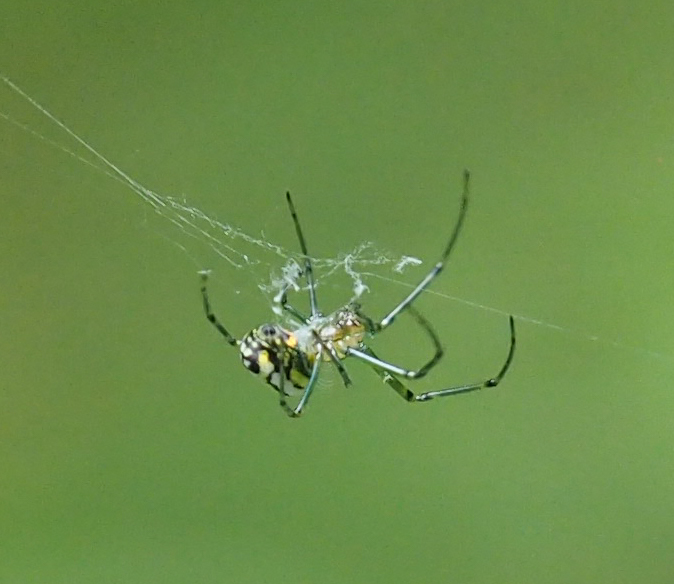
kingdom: Animalia
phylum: Arthropoda
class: Arachnida
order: Araneae
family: Tetragnathidae
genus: Leucauge
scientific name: Leucauge venusta
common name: Longjawed orb weavers
